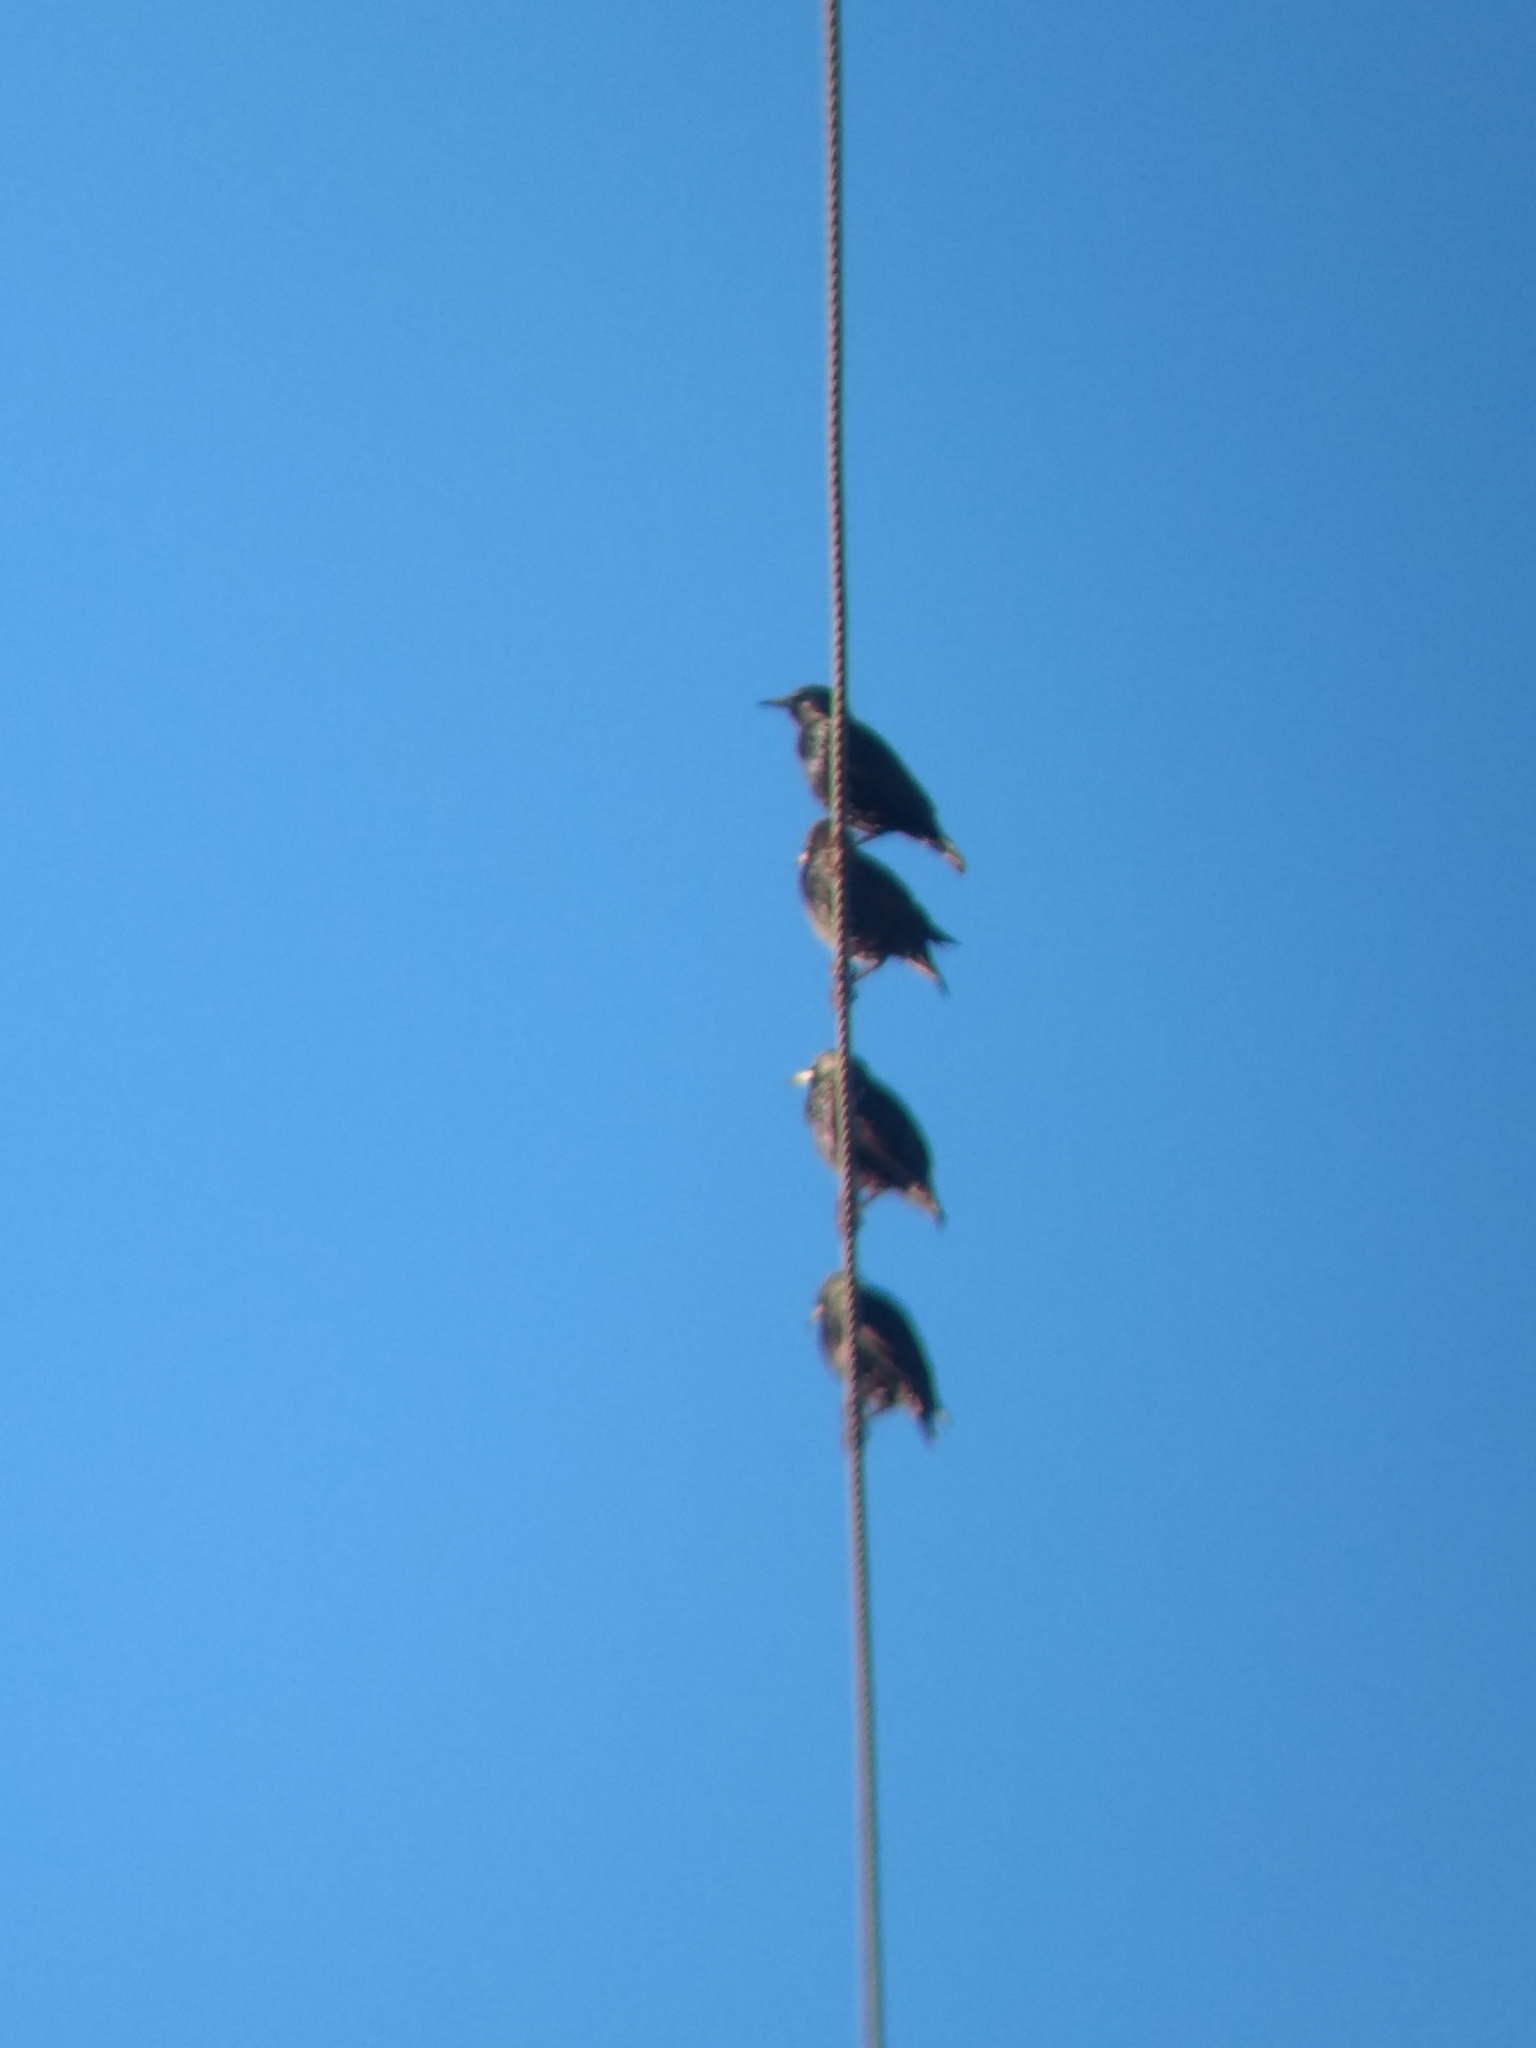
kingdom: Animalia
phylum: Chordata
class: Aves
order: Passeriformes
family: Sturnidae
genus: Sturnus
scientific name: Sturnus vulgaris
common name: Common starling
